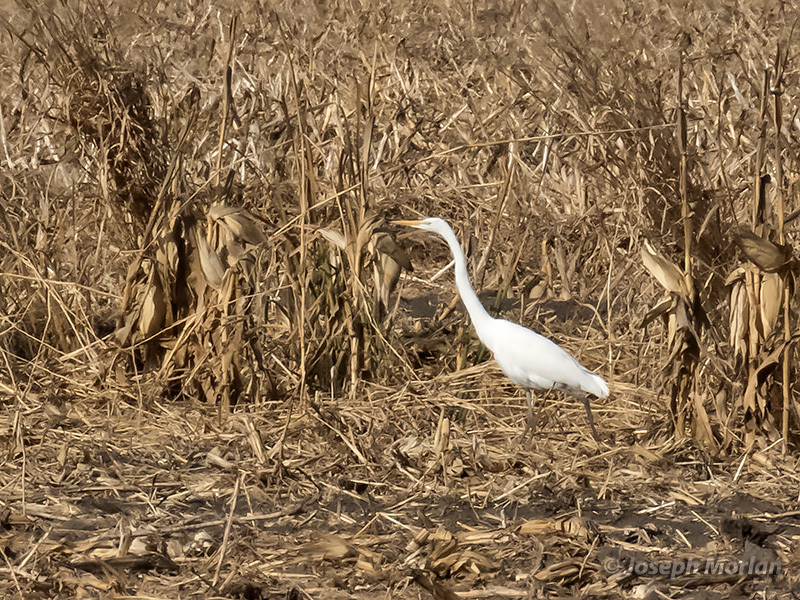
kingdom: Animalia
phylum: Chordata
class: Aves
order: Pelecaniformes
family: Ardeidae
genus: Ardea
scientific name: Ardea alba
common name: Great egret
